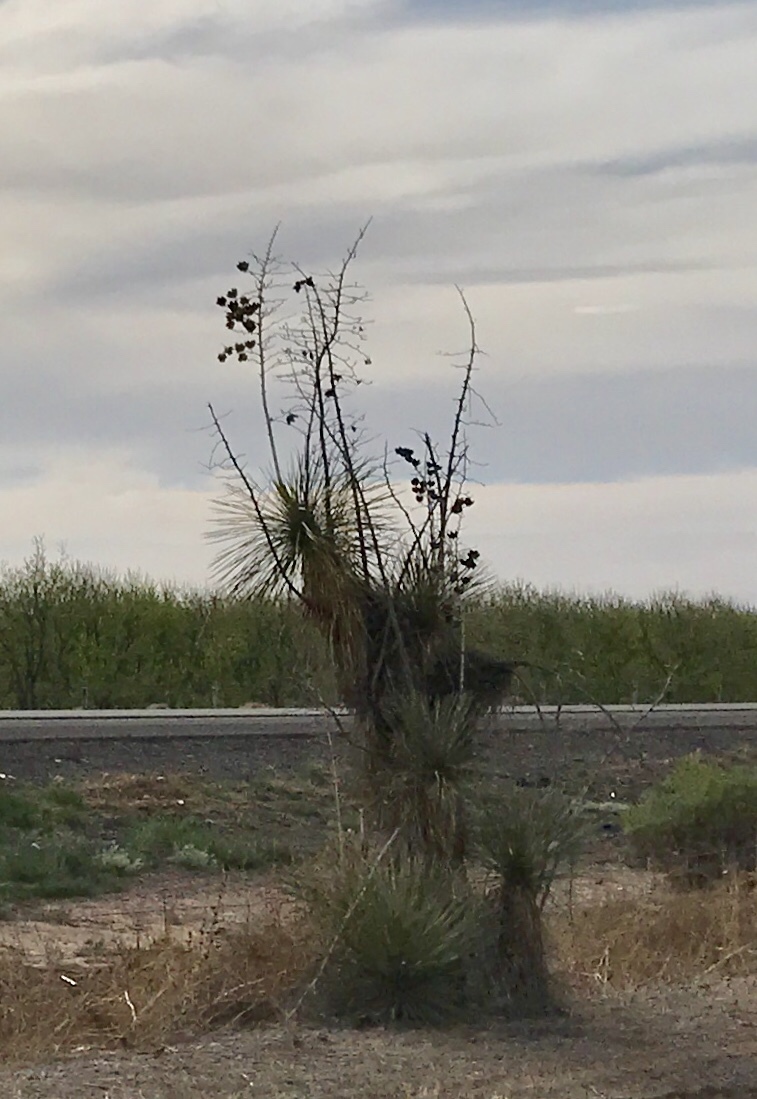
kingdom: Plantae
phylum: Tracheophyta
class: Liliopsida
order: Asparagales
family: Asparagaceae
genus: Yucca
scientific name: Yucca elata
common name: Palmella
